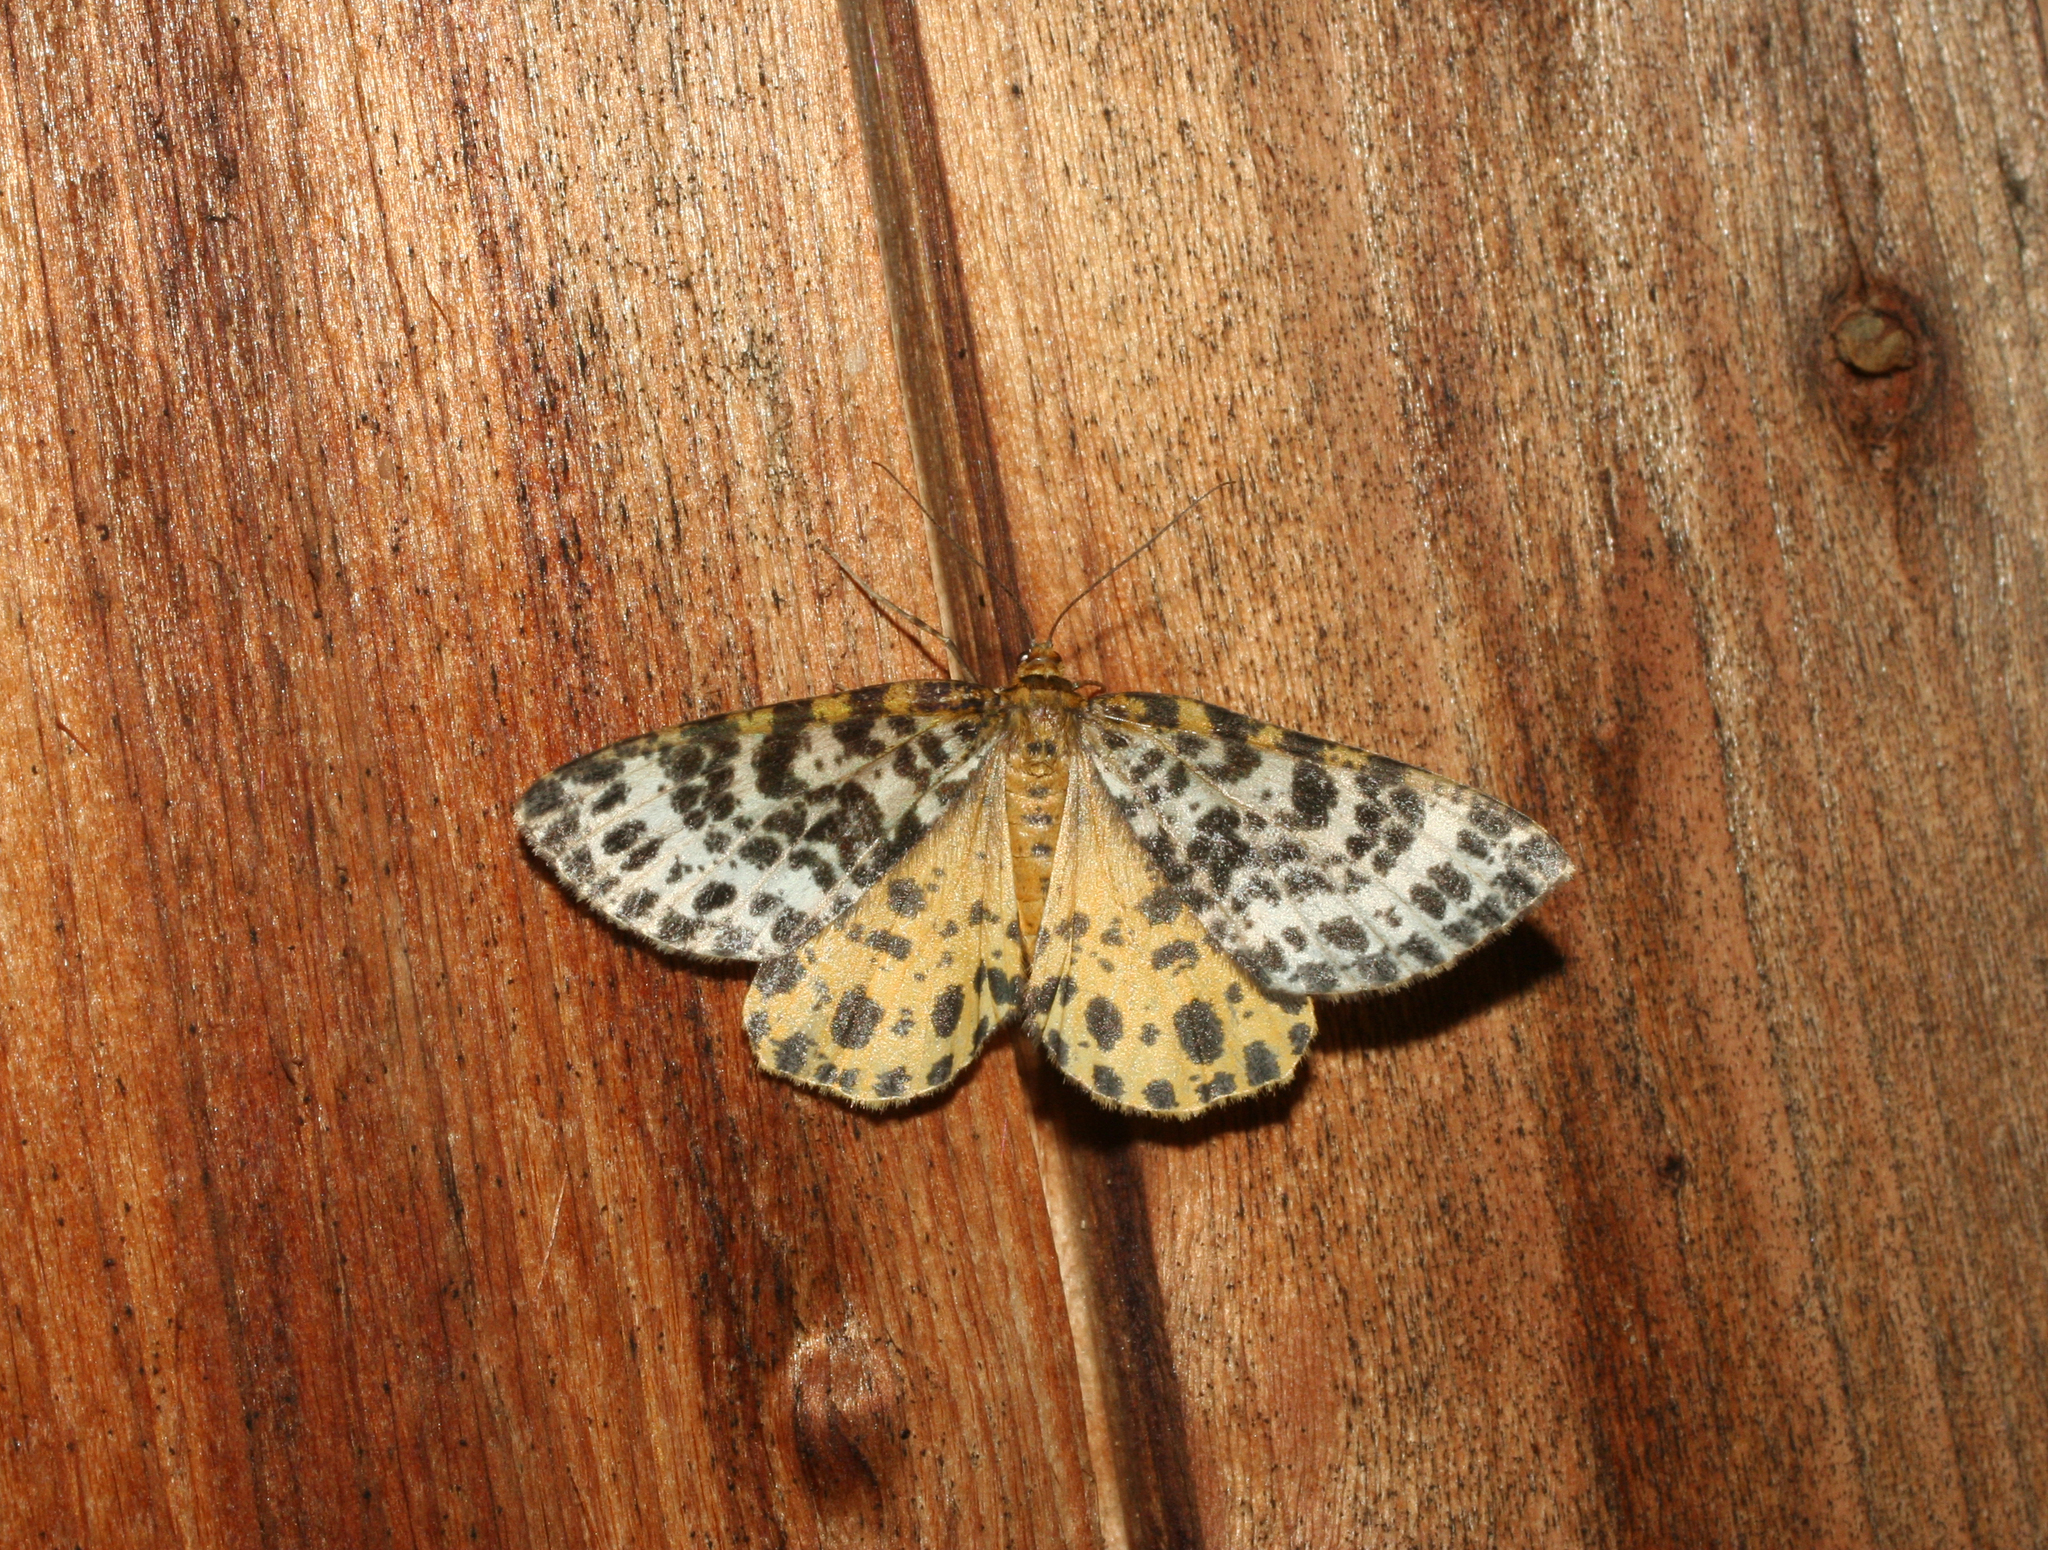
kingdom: Animalia
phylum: Arthropoda
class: Insecta
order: Lepidoptera
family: Geometridae
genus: Arichanna
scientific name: Arichanna melanaria
